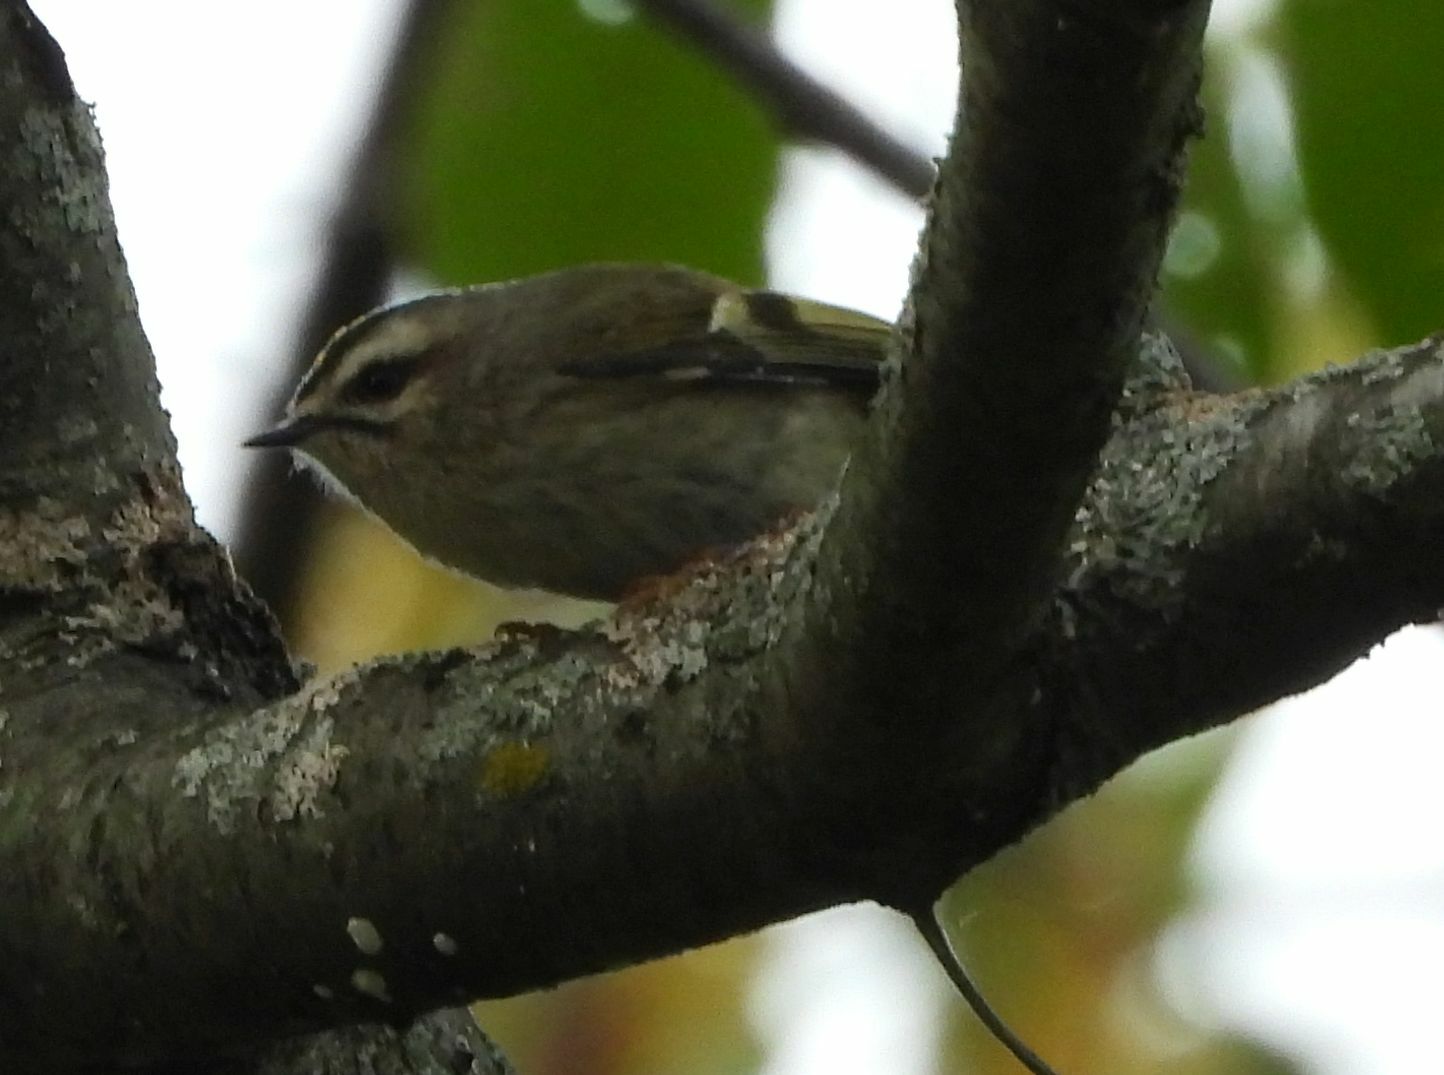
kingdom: Animalia
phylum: Chordata
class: Aves
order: Passeriformes
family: Regulidae
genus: Regulus
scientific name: Regulus satrapa
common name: Golden-crowned kinglet
